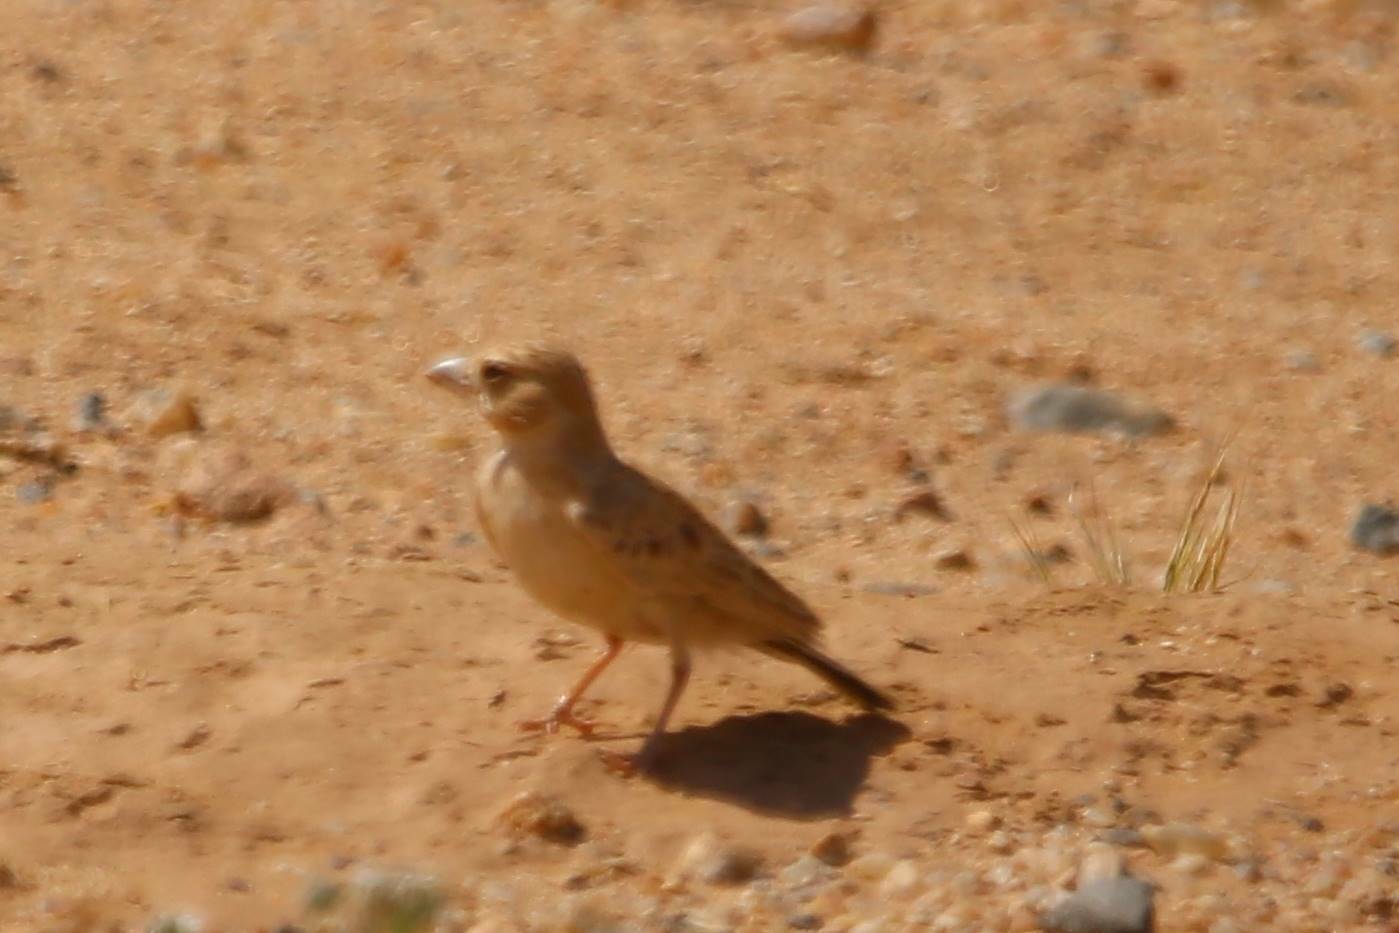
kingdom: Animalia
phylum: Chordata
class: Aves
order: Passeriformes
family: Alaudidae
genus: Eremopterix
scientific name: Eremopterix nigriceps
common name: Black-crowned sparrow-lark
